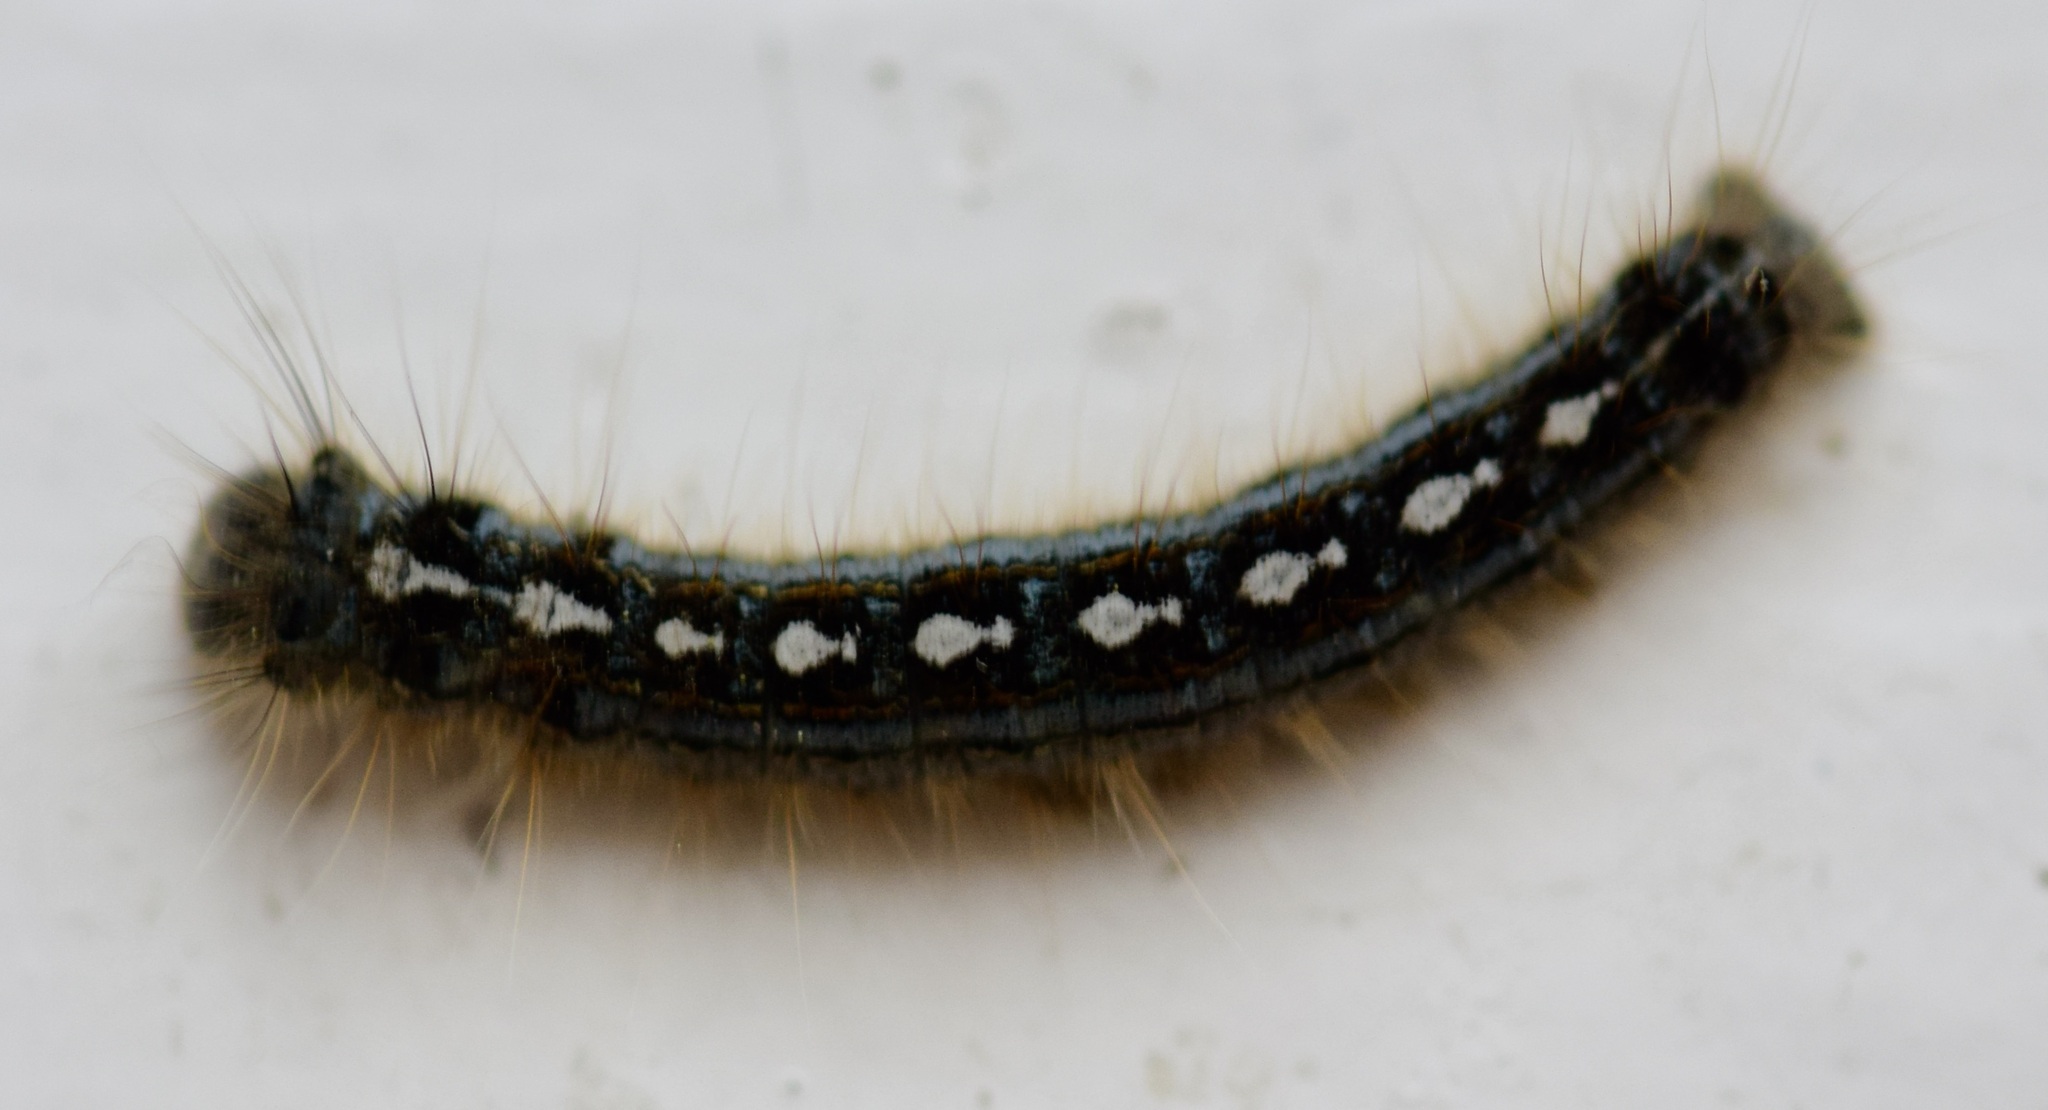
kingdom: Animalia
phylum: Arthropoda
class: Insecta
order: Lepidoptera
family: Lasiocampidae
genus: Malacosoma
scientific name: Malacosoma disstria
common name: Forest tent caterpillar
